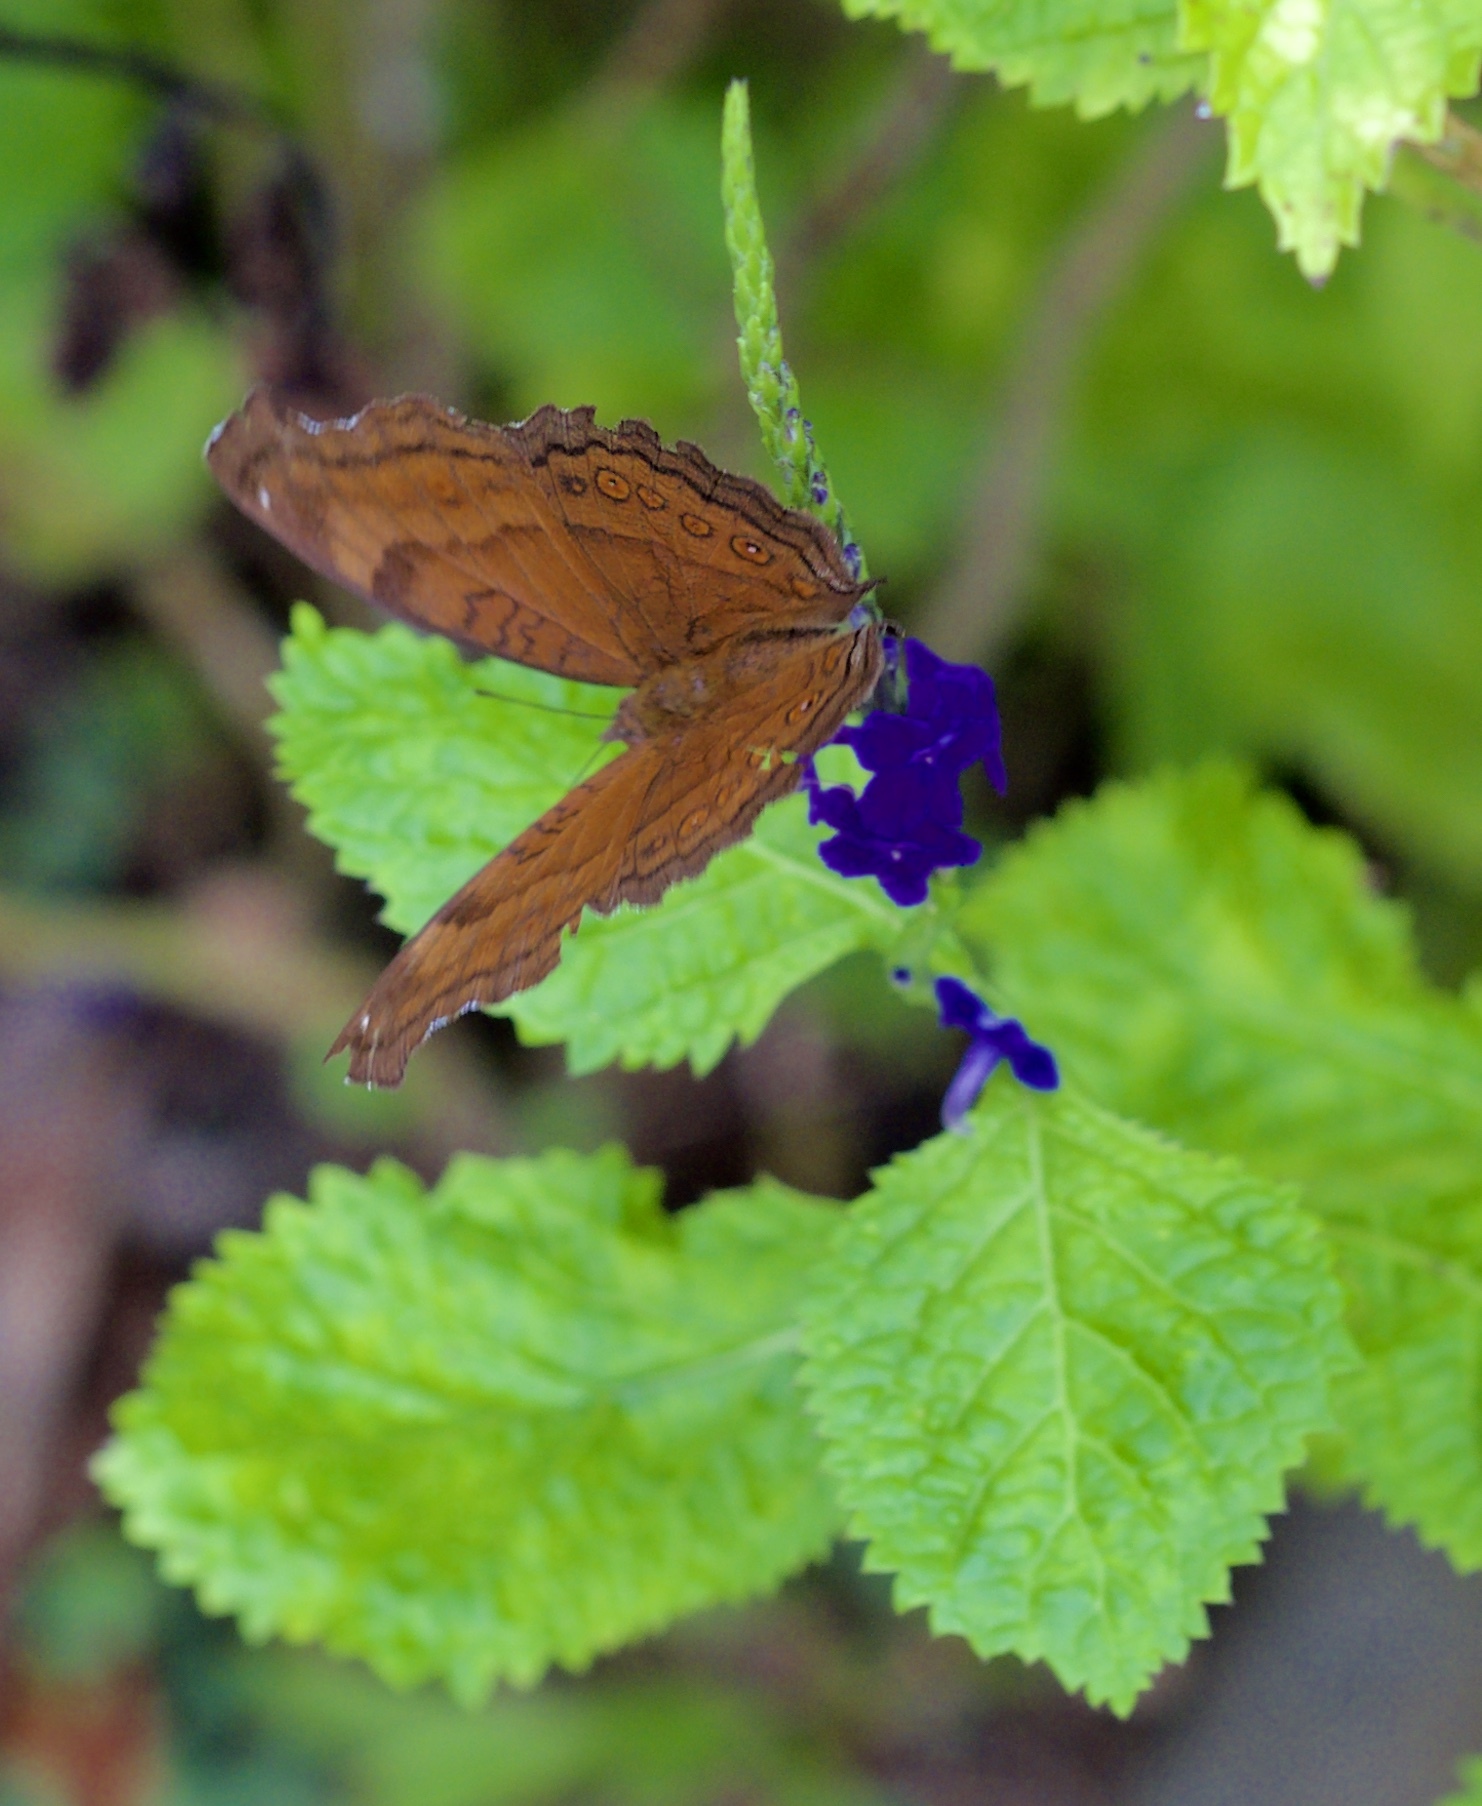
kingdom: Animalia
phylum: Arthropoda
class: Insecta
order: Lepidoptera
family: Nymphalidae
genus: Junonia
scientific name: Junonia hedonia
